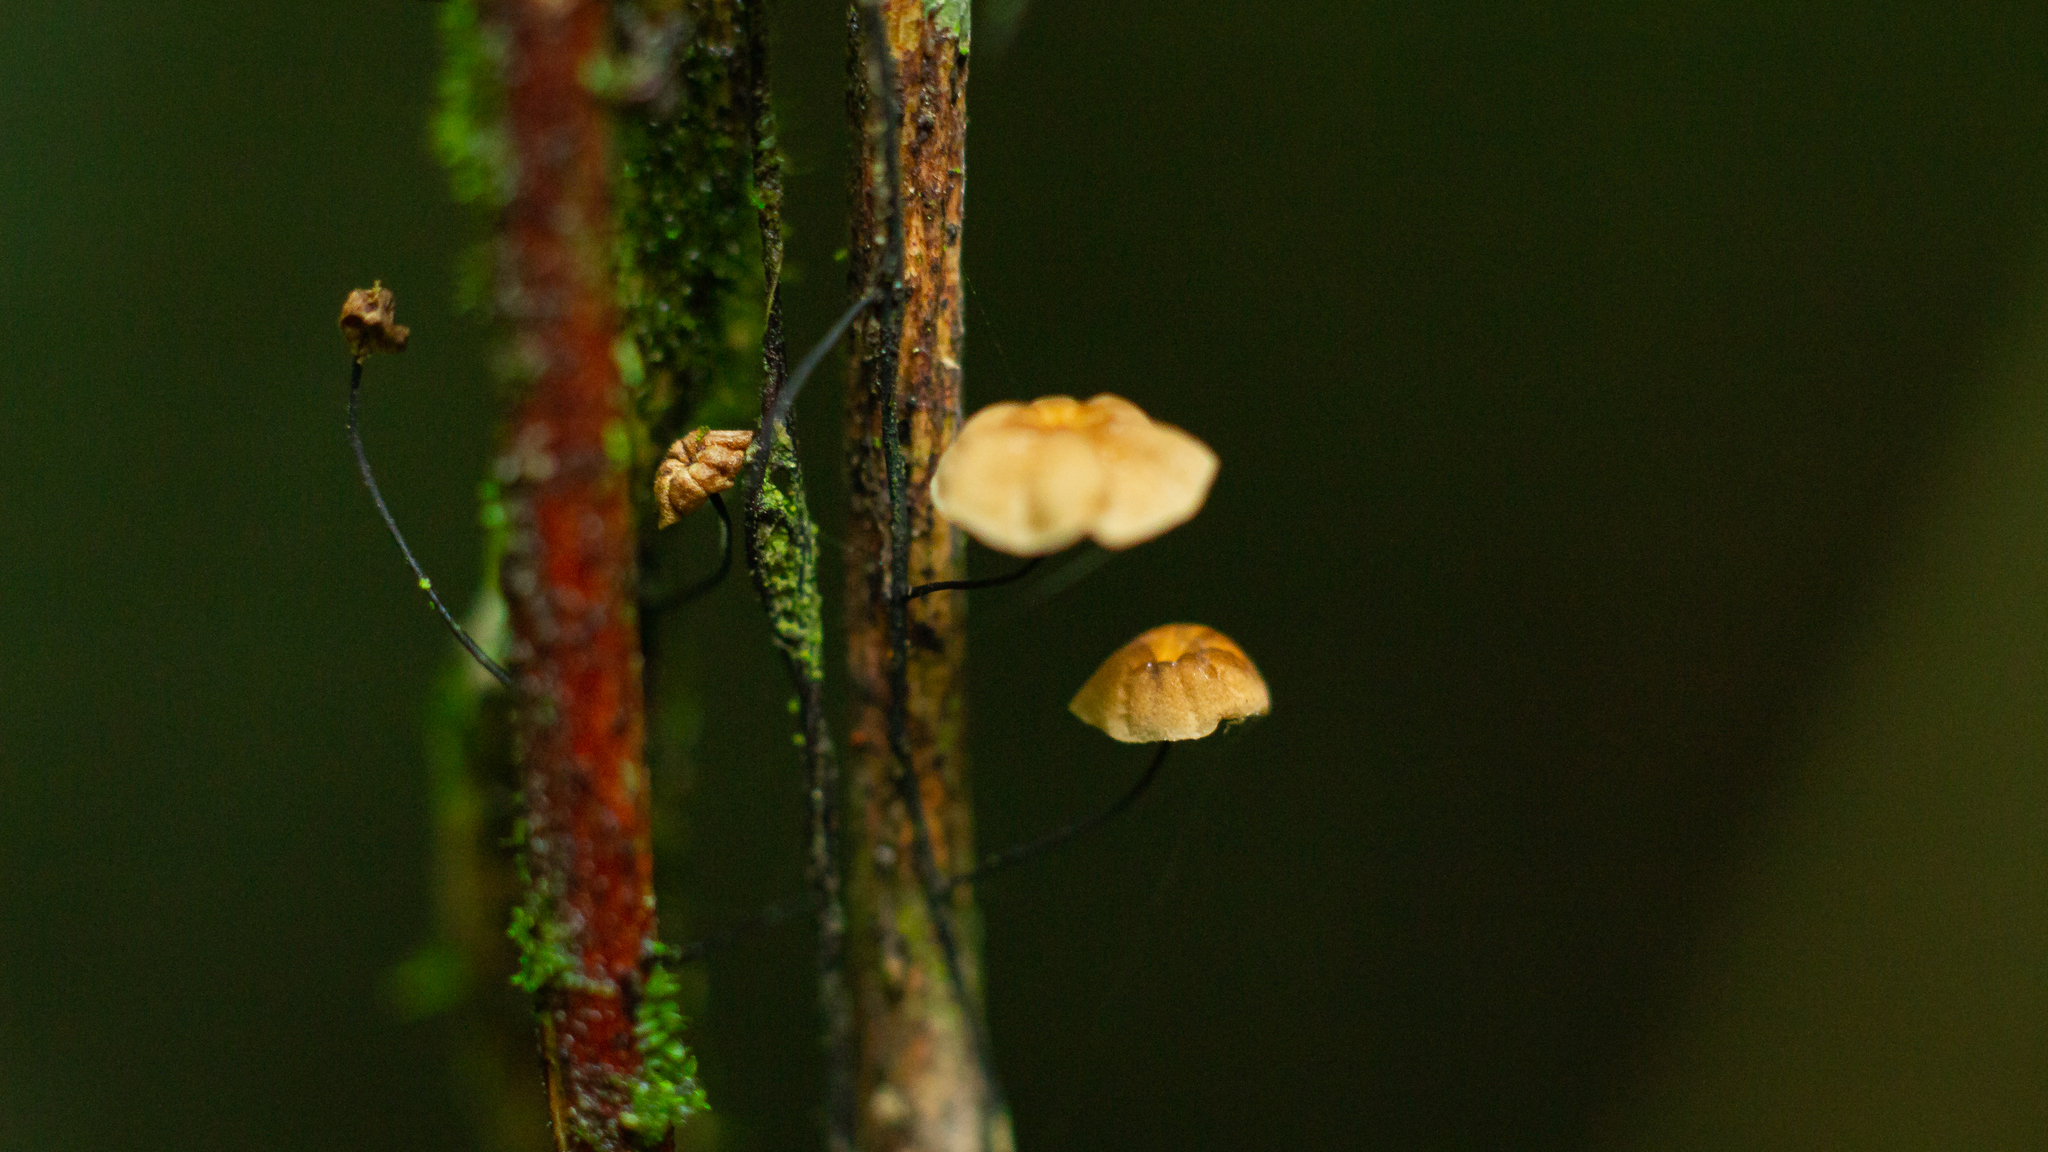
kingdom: Fungi
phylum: Basidiomycota
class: Agaricomycetes
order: Agaricales
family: Marasmiaceae
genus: Marasmius
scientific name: Marasmius crinis-equi
